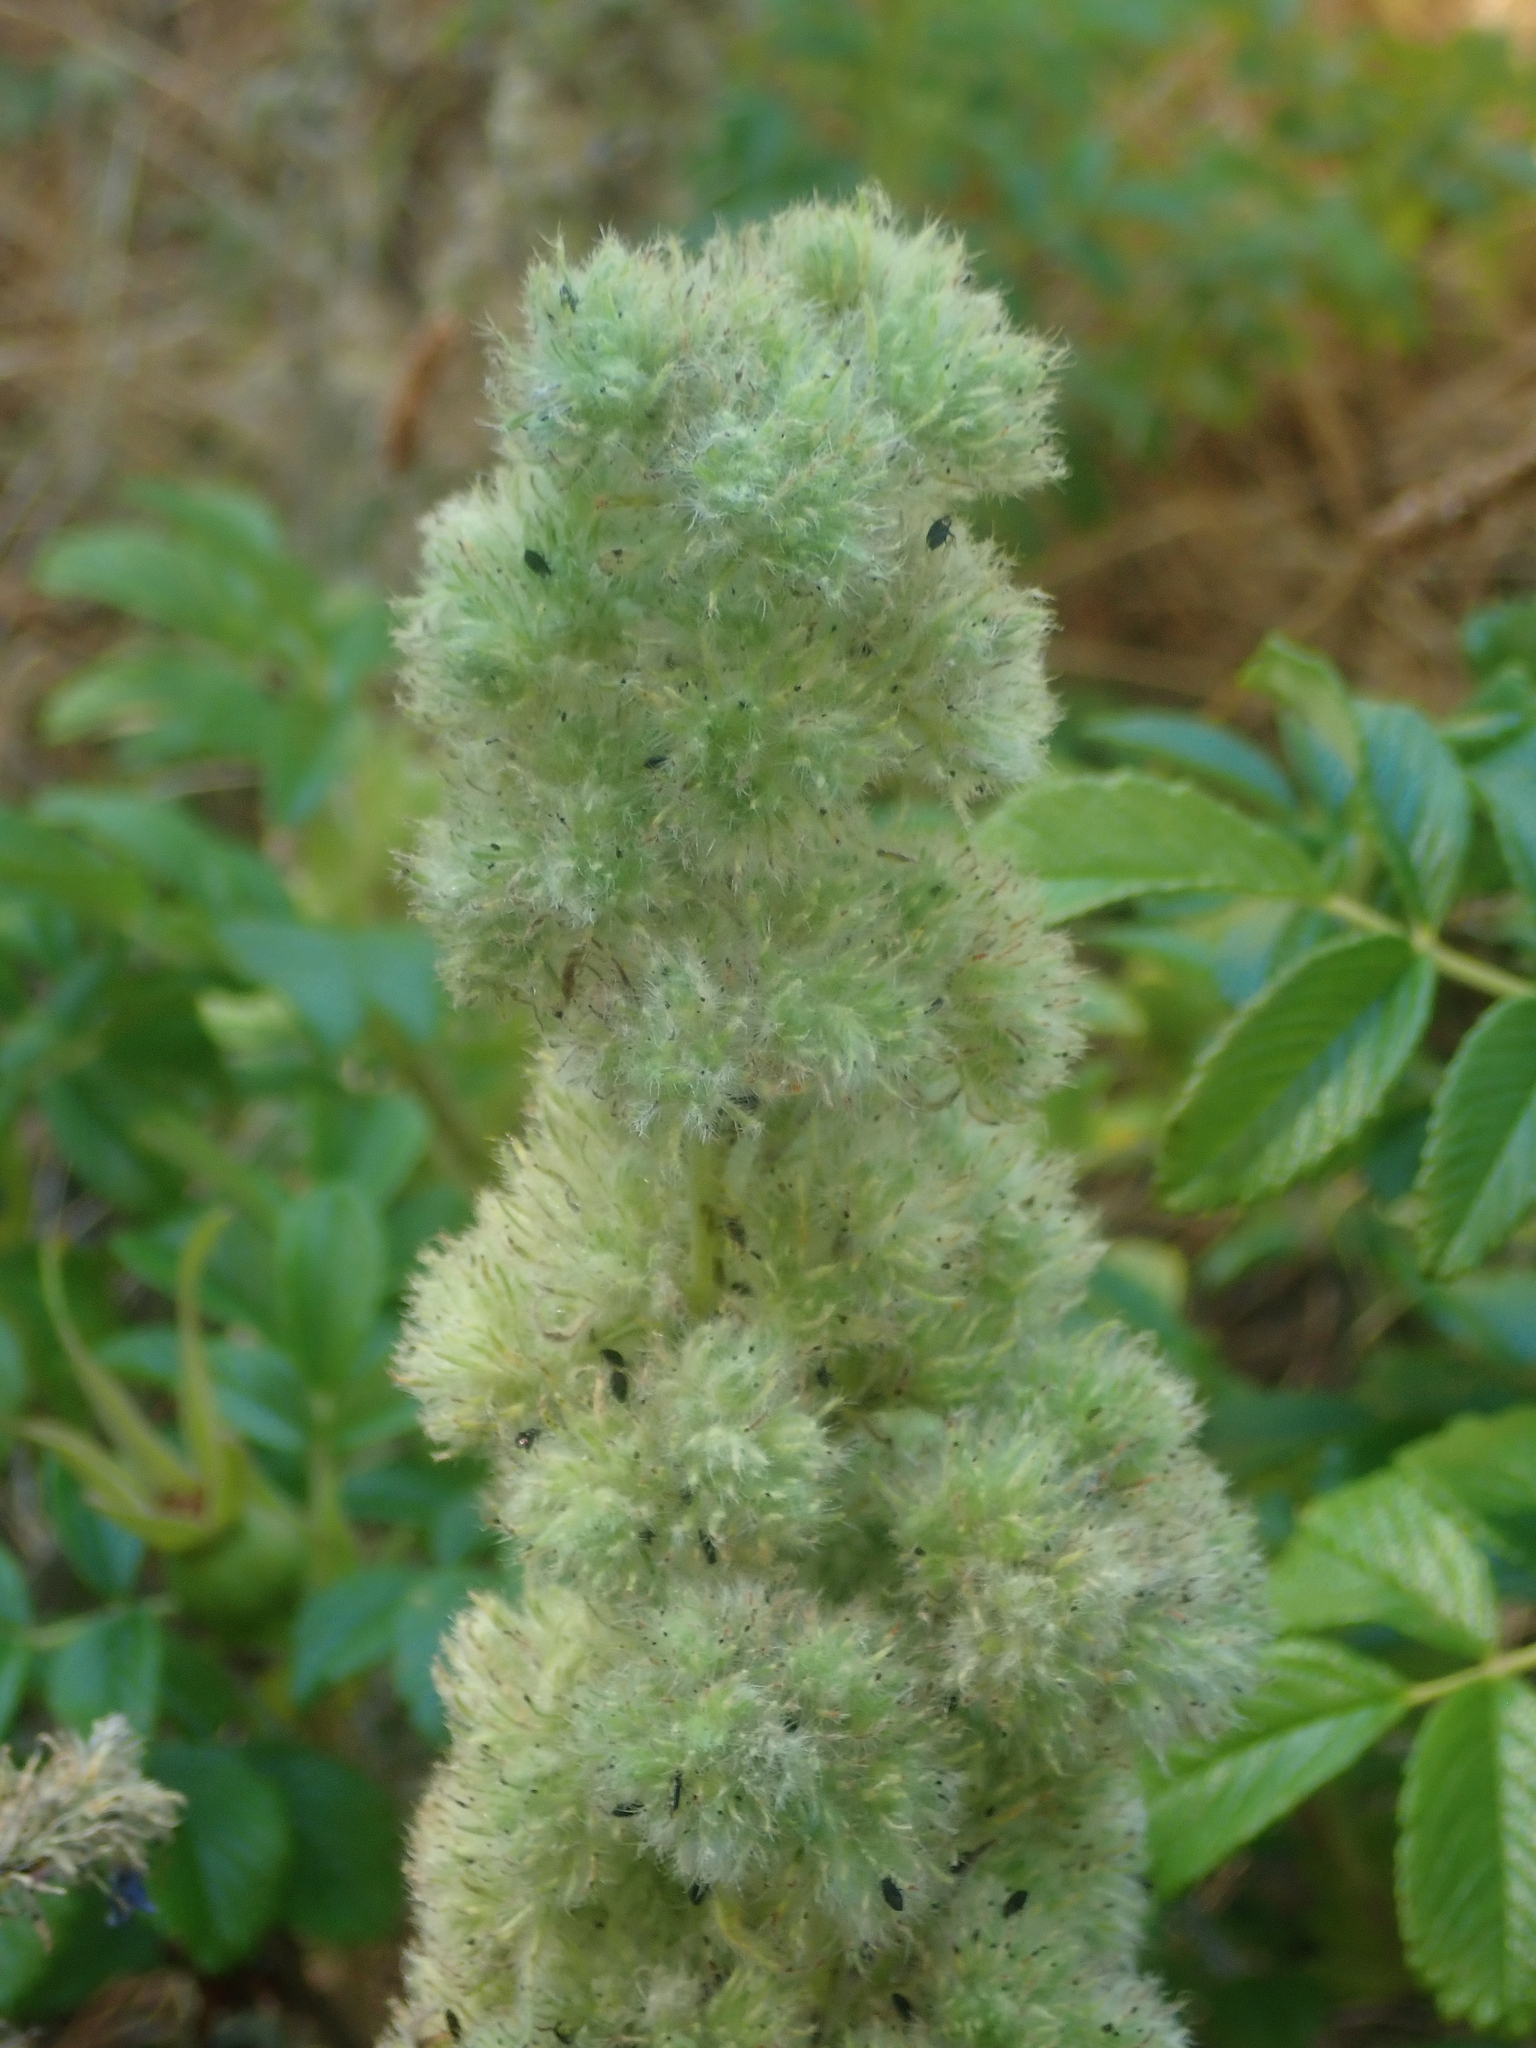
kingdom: Animalia
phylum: Arthropoda
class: Arachnida
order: Trombidiformes
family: Eriophyidae
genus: Aceria
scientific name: Aceria echii
